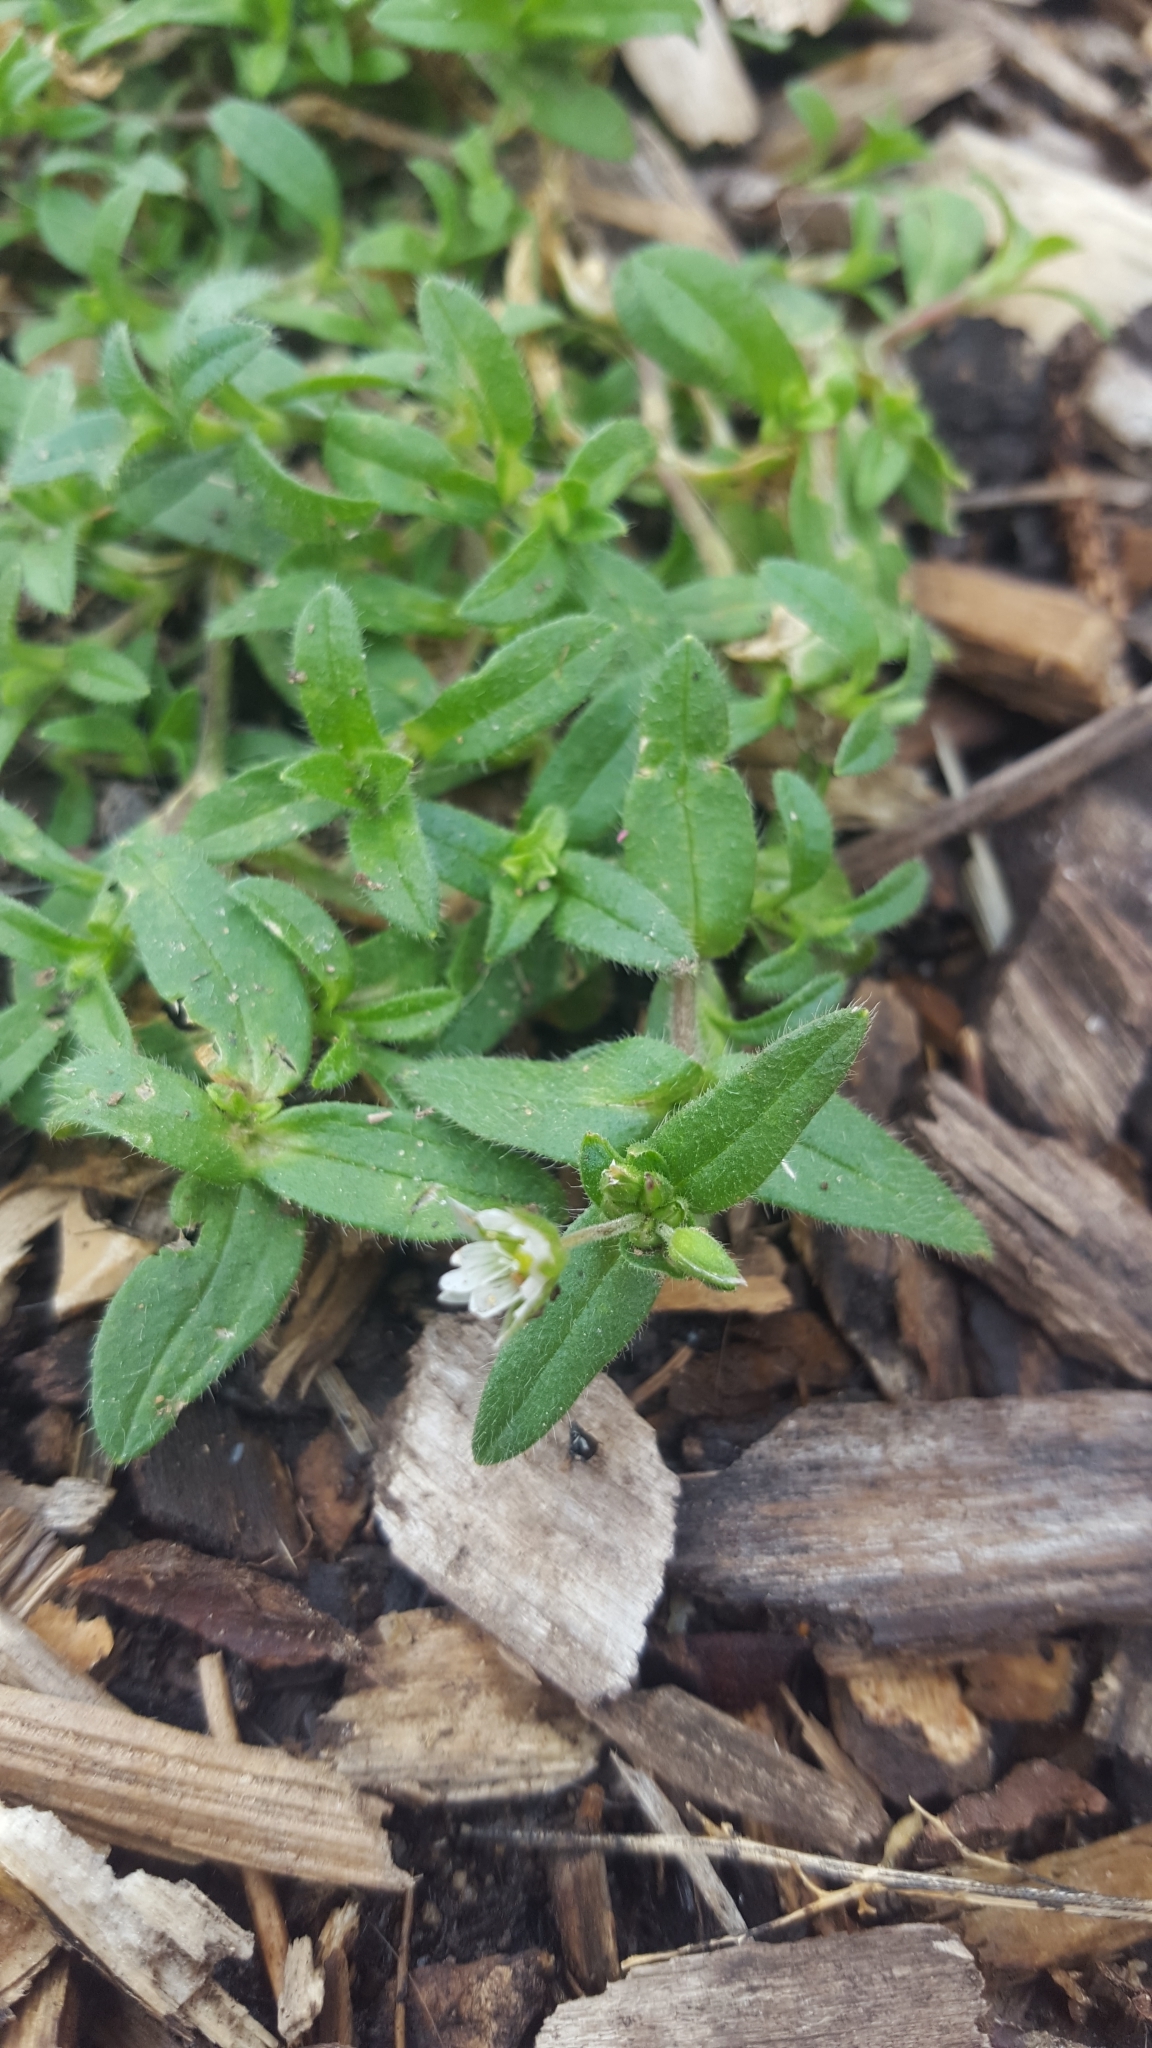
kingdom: Plantae
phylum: Tracheophyta
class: Magnoliopsida
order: Caryophyllales
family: Caryophyllaceae
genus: Cerastium
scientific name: Cerastium fontanum
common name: Common mouse-ear
